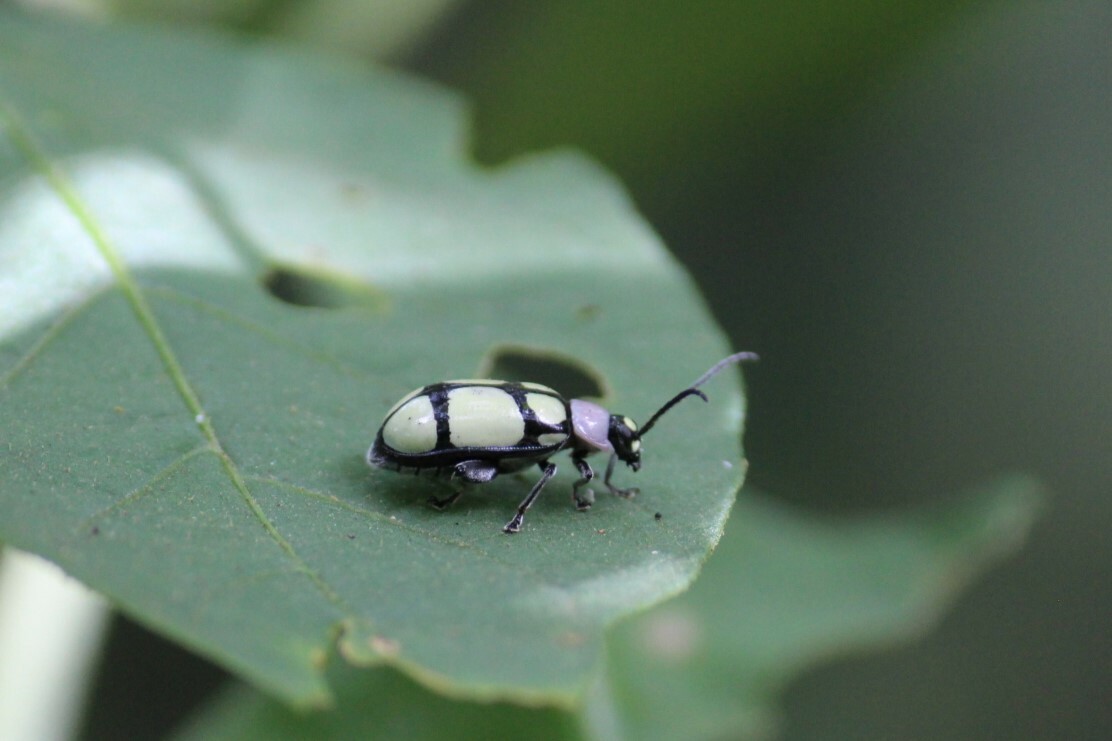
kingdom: Animalia
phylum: Arthropoda
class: Insecta
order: Coleoptera
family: Chrysomelidae
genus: Omophoita
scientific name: Omophoita
